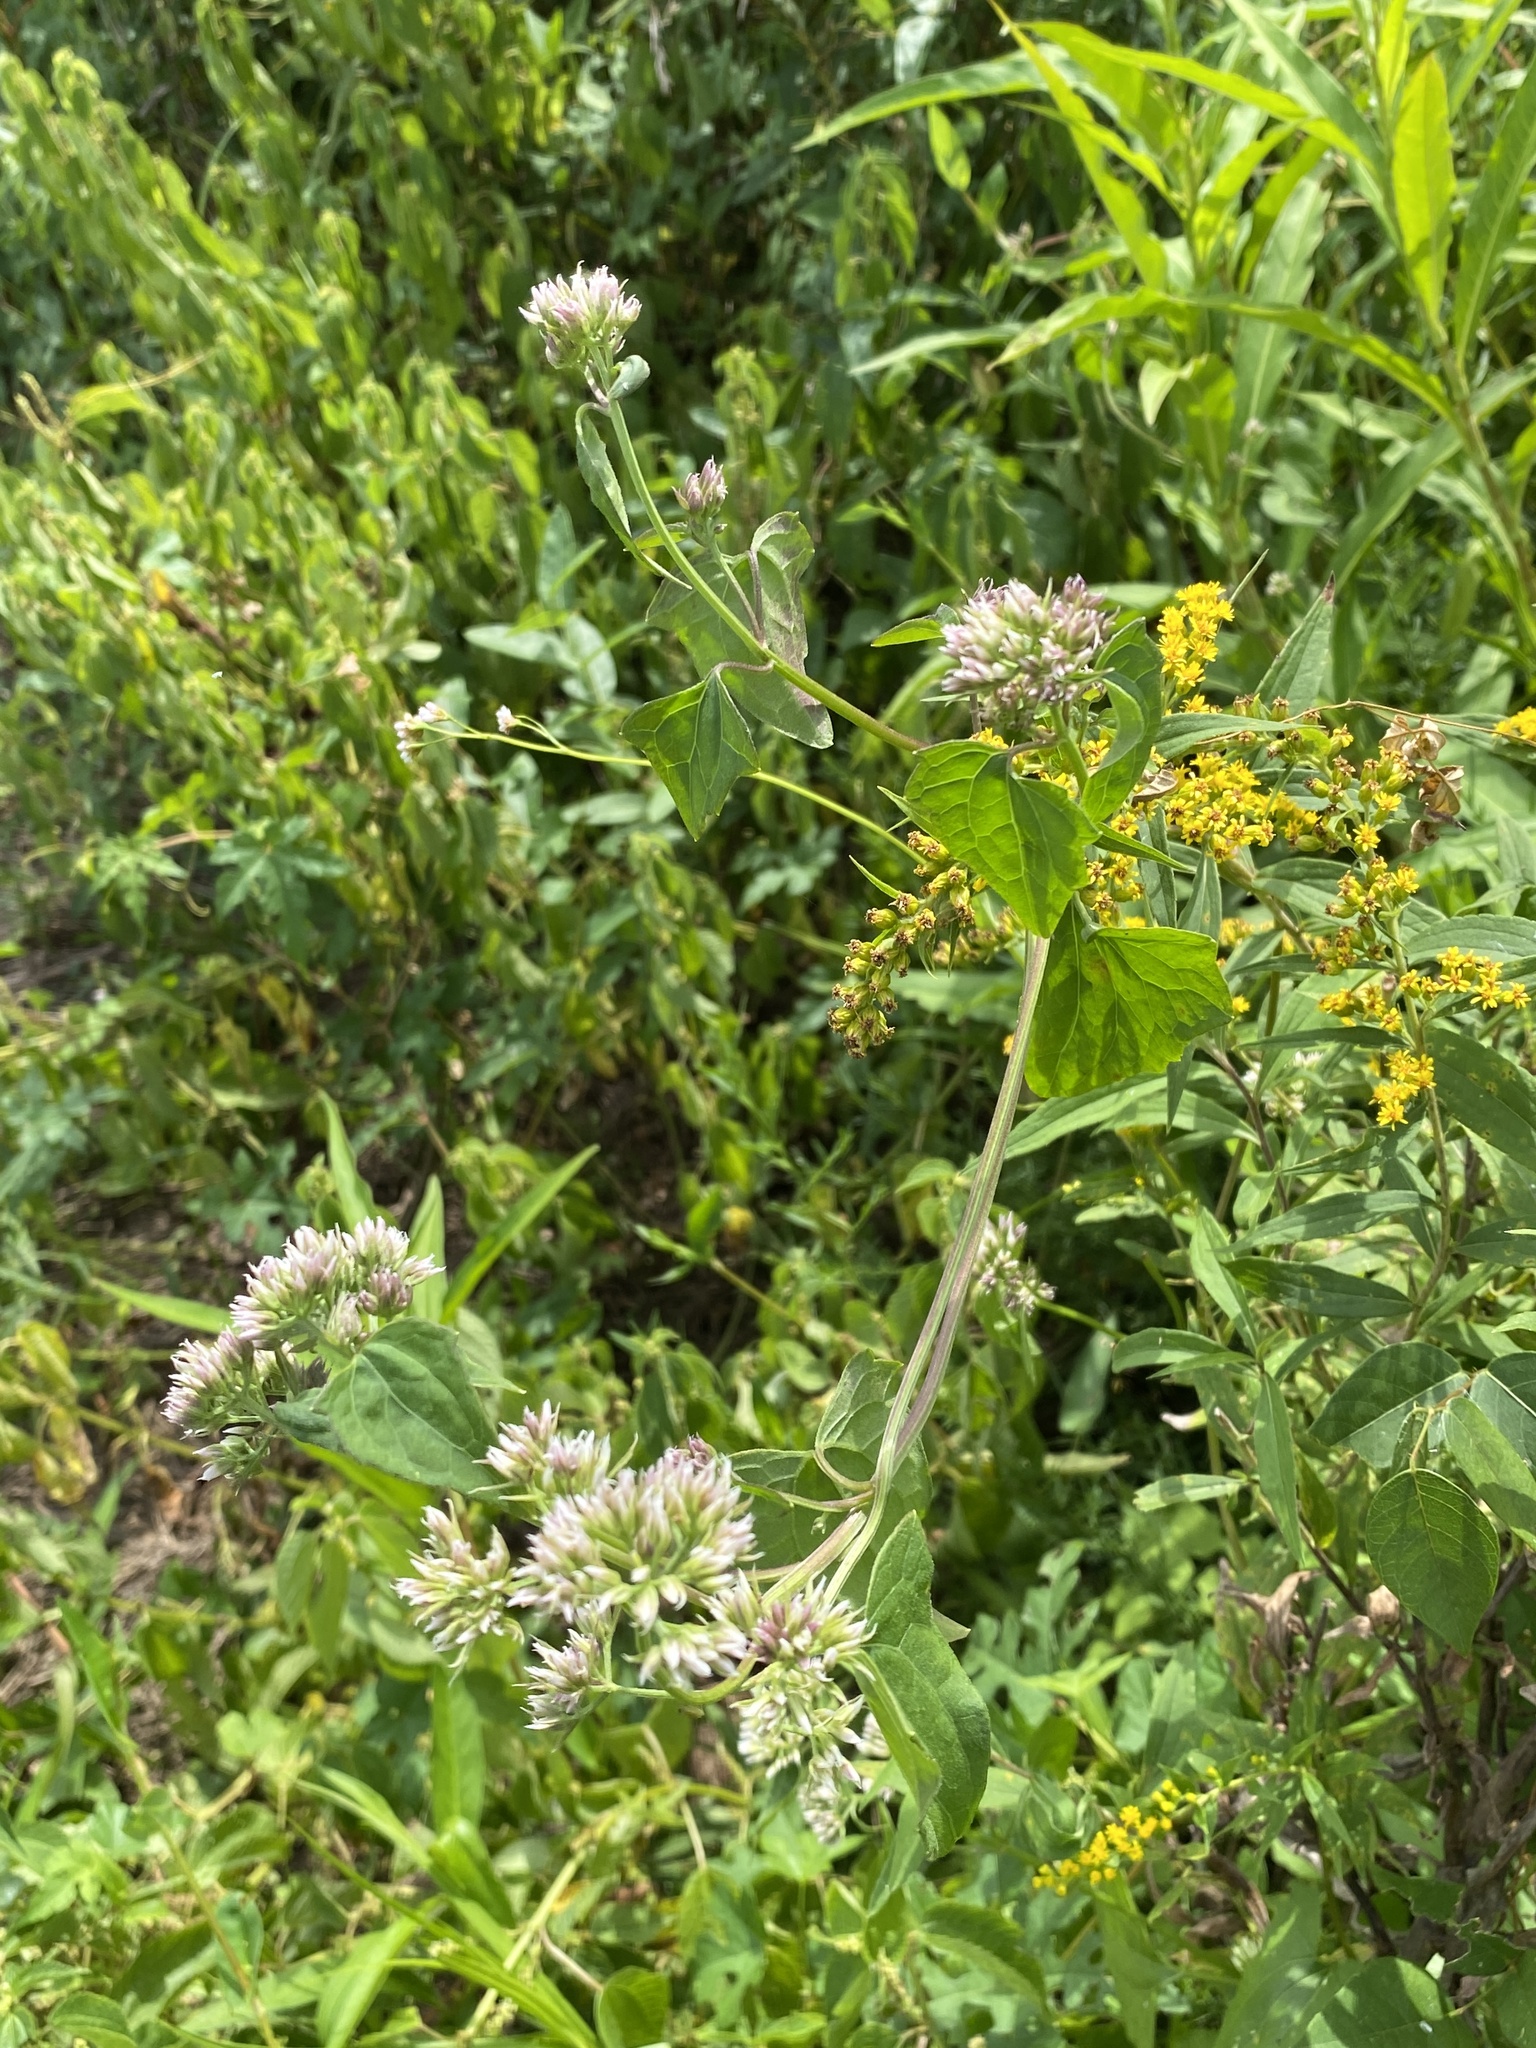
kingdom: Plantae
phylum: Tracheophyta
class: Magnoliopsida
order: Asterales
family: Asteraceae
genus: Mikania
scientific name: Mikania scandens
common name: Climbing hempvine
